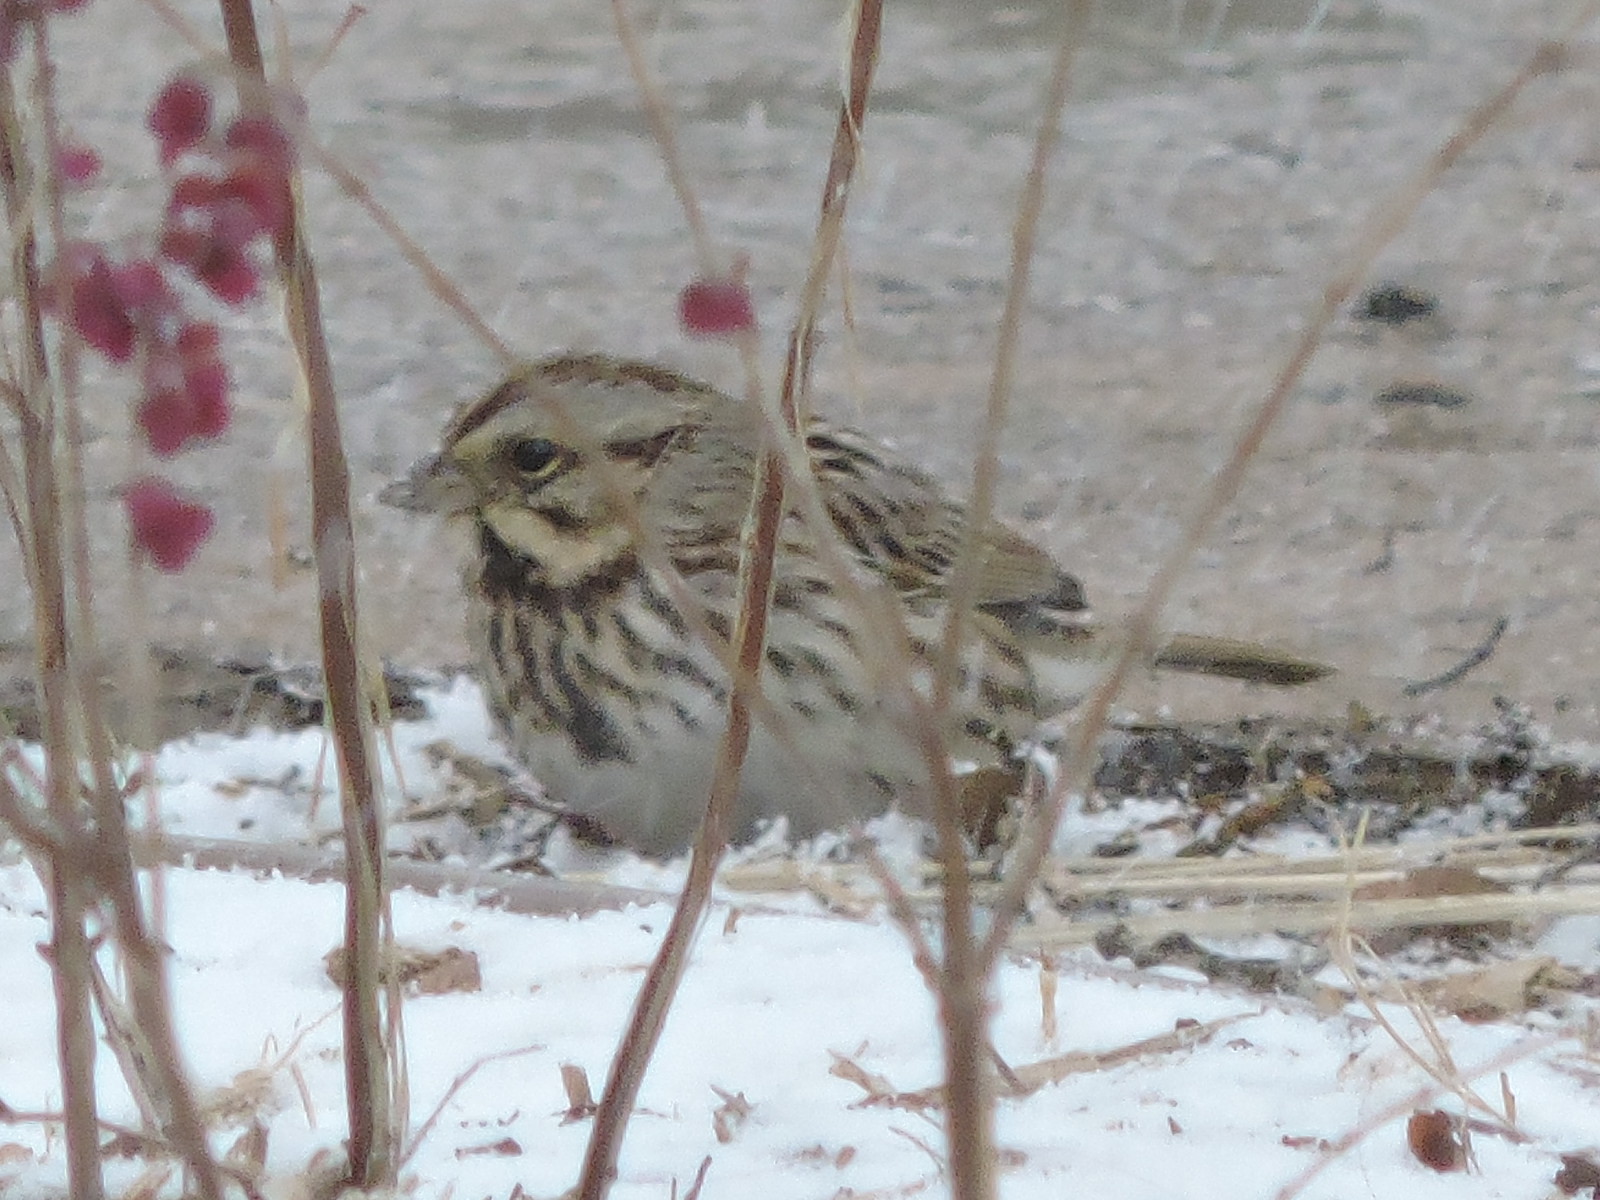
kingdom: Animalia
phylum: Chordata
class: Aves
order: Passeriformes
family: Passerellidae
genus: Melospiza
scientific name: Melospiza melodia
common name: Song sparrow
